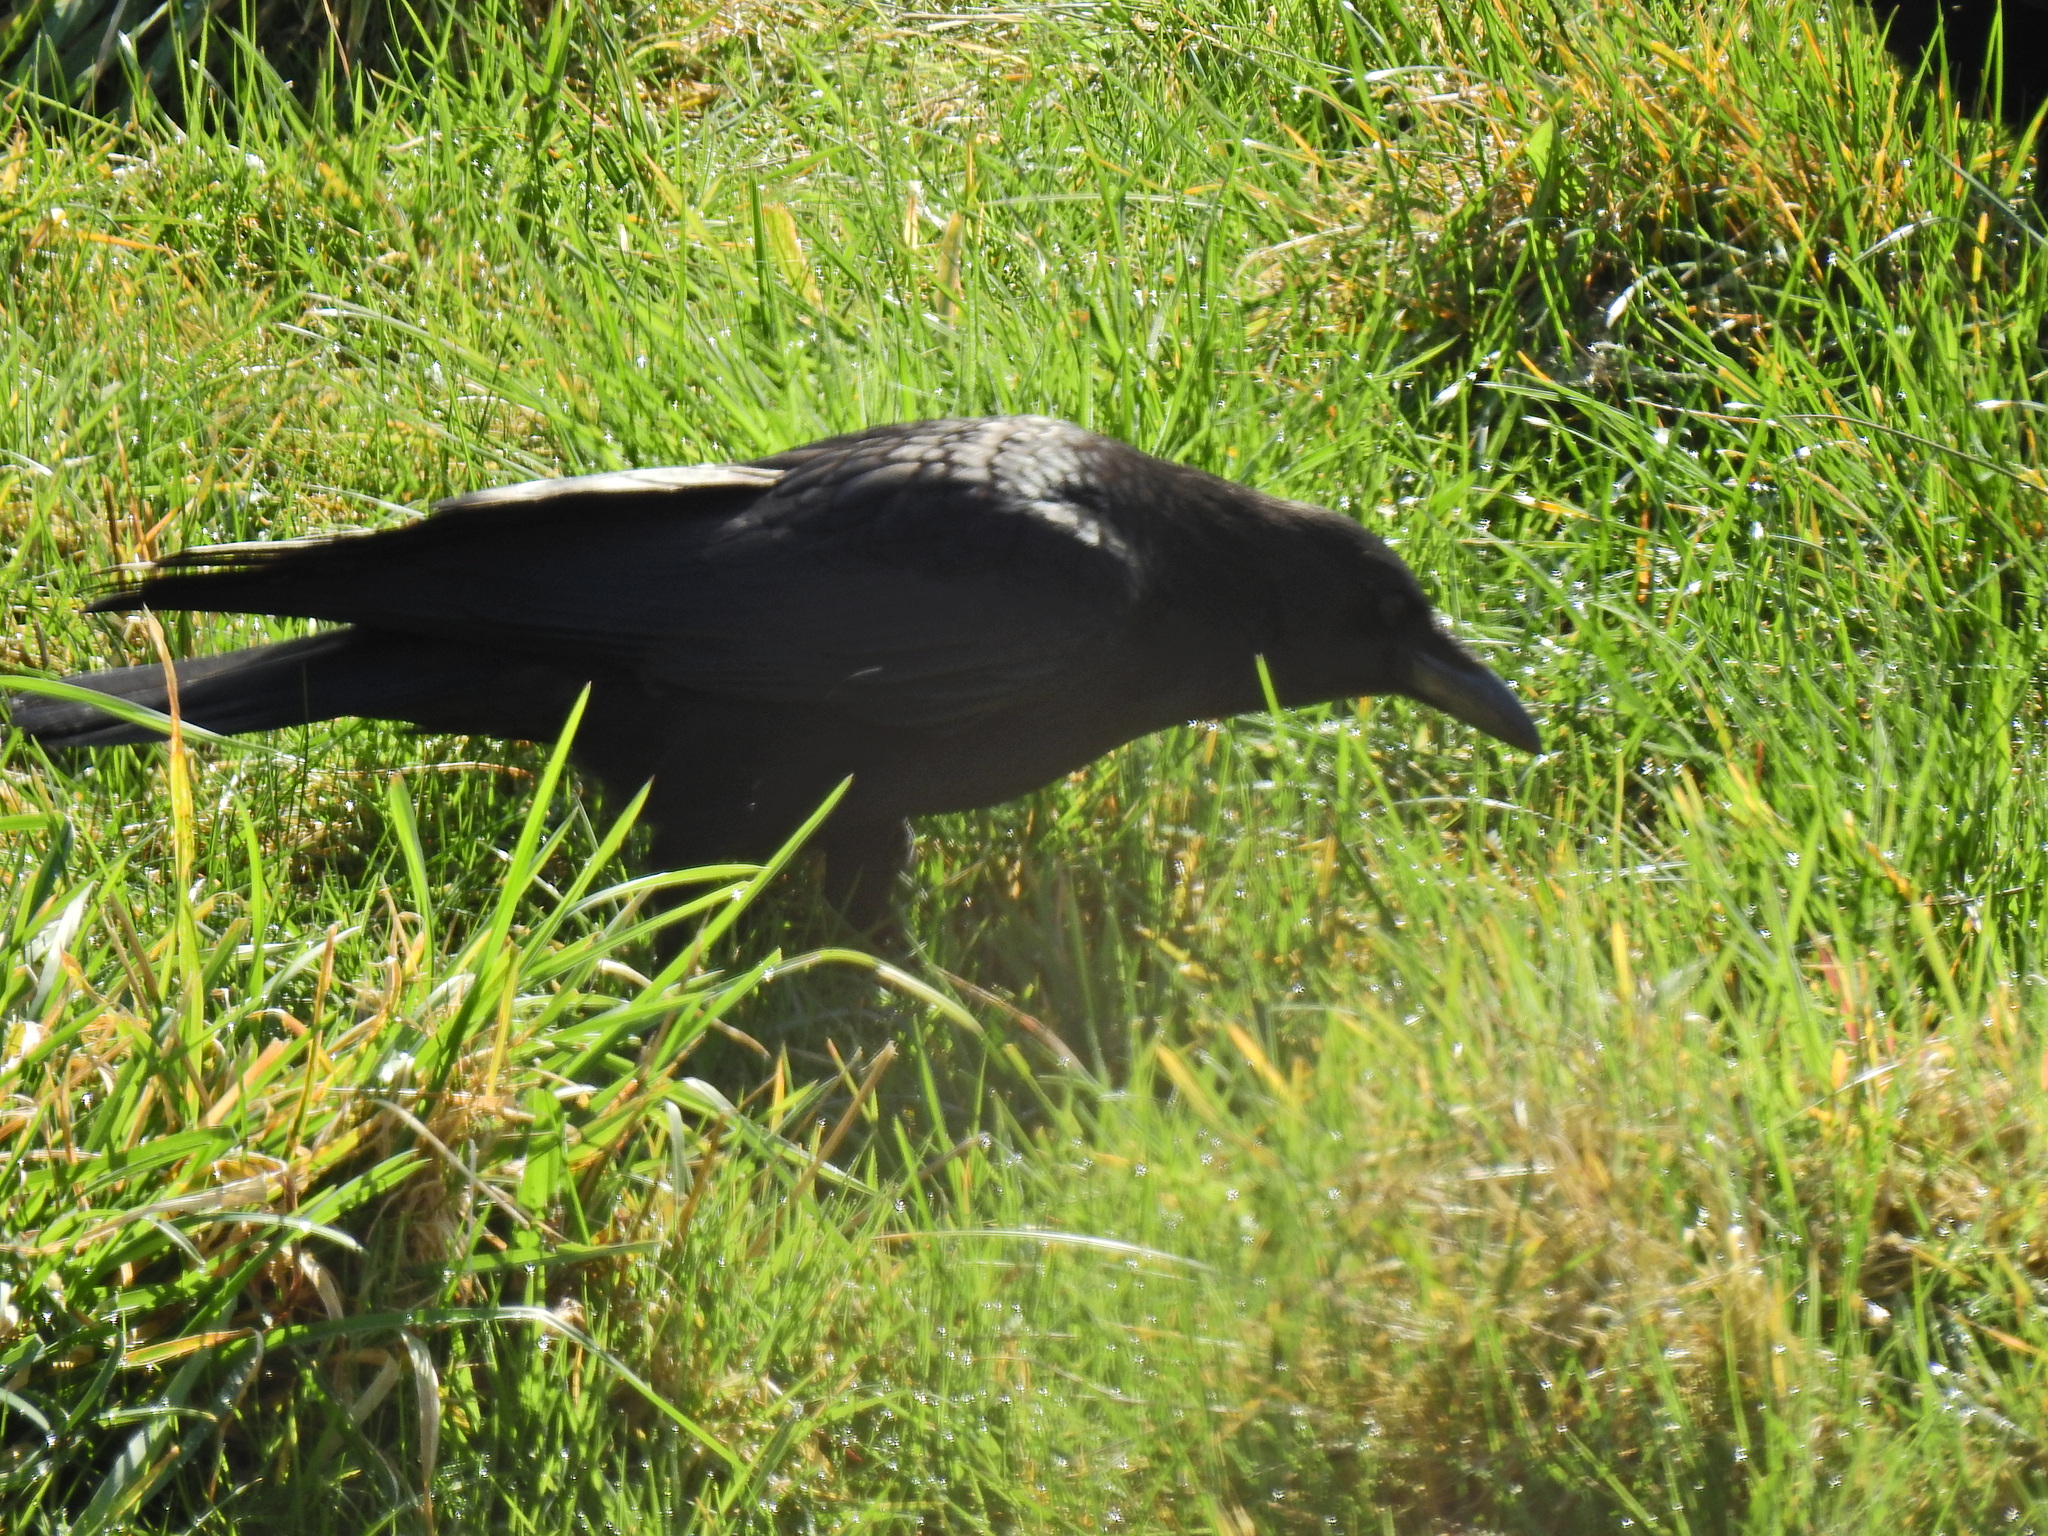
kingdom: Animalia
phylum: Chordata
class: Aves
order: Passeriformes
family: Corvidae
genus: Corvus
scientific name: Corvus corone
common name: Carrion crow
